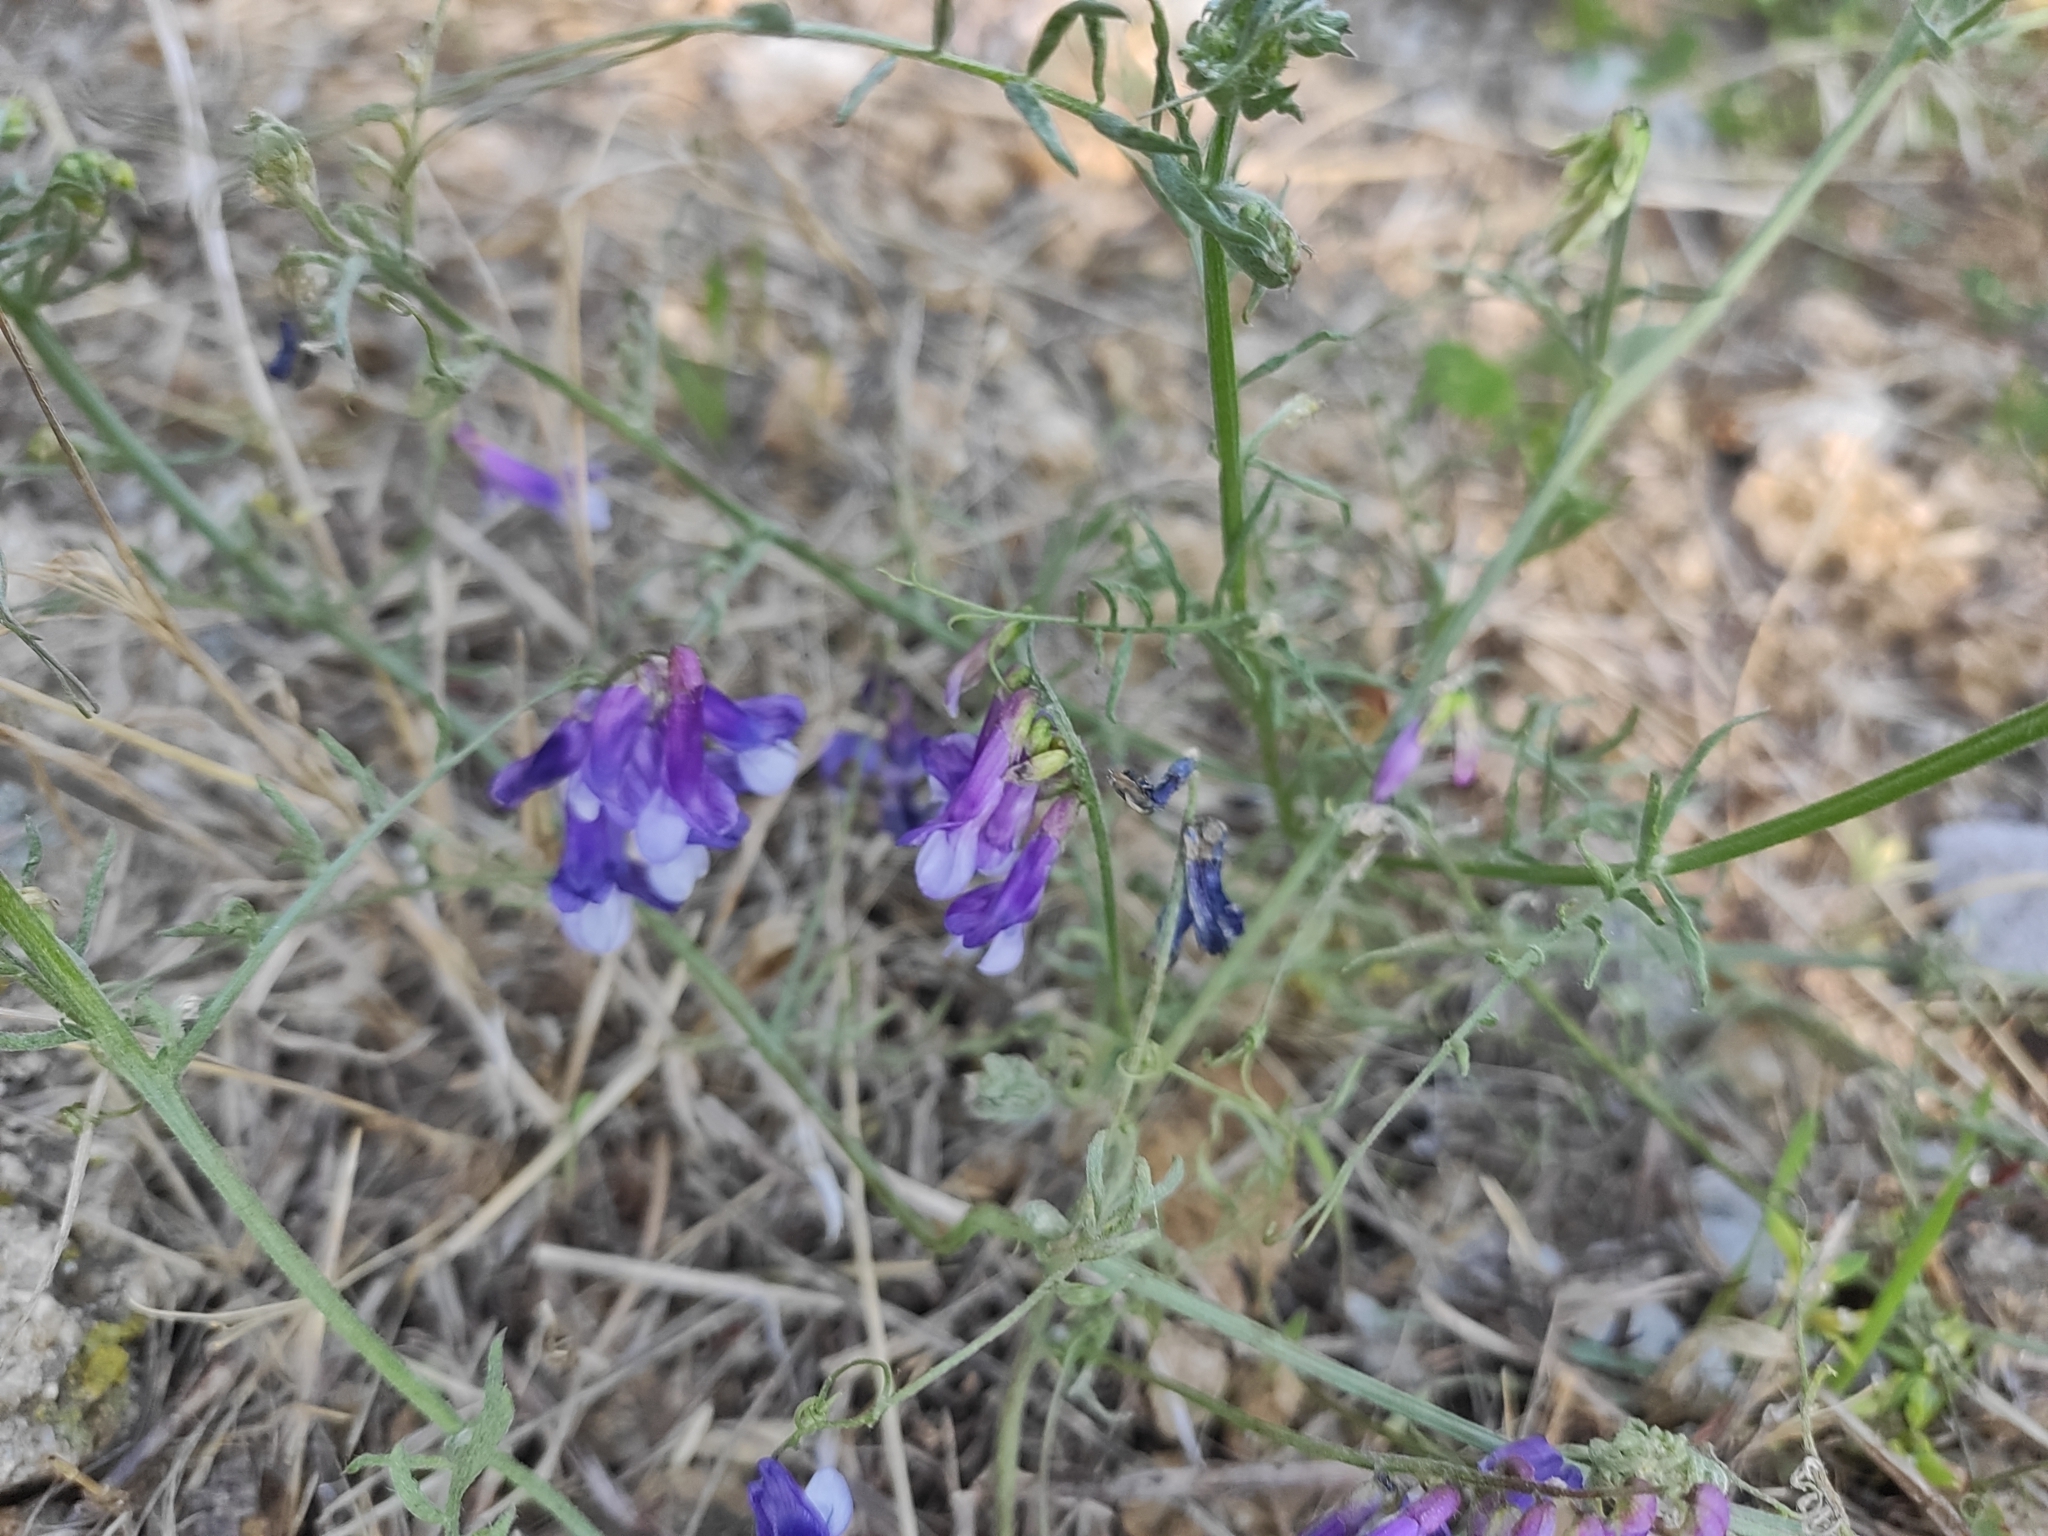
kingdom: Plantae
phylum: Tracheophyta
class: Magnoliopsida
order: Fabales
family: Fabaceae
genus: Vicia
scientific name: Vicia villosa
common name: Fodder vetch
